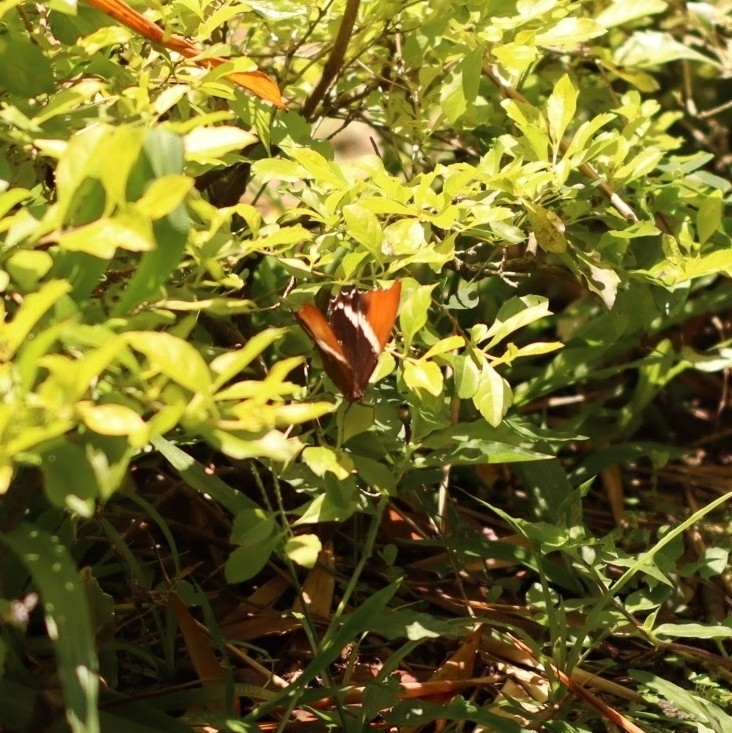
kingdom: Animalia
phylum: Arthropoda
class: Insecta
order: Lepidoptera
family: Nymphalidae
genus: Siproeta
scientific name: Siproeta epaphus
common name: Rusty-tipped page
